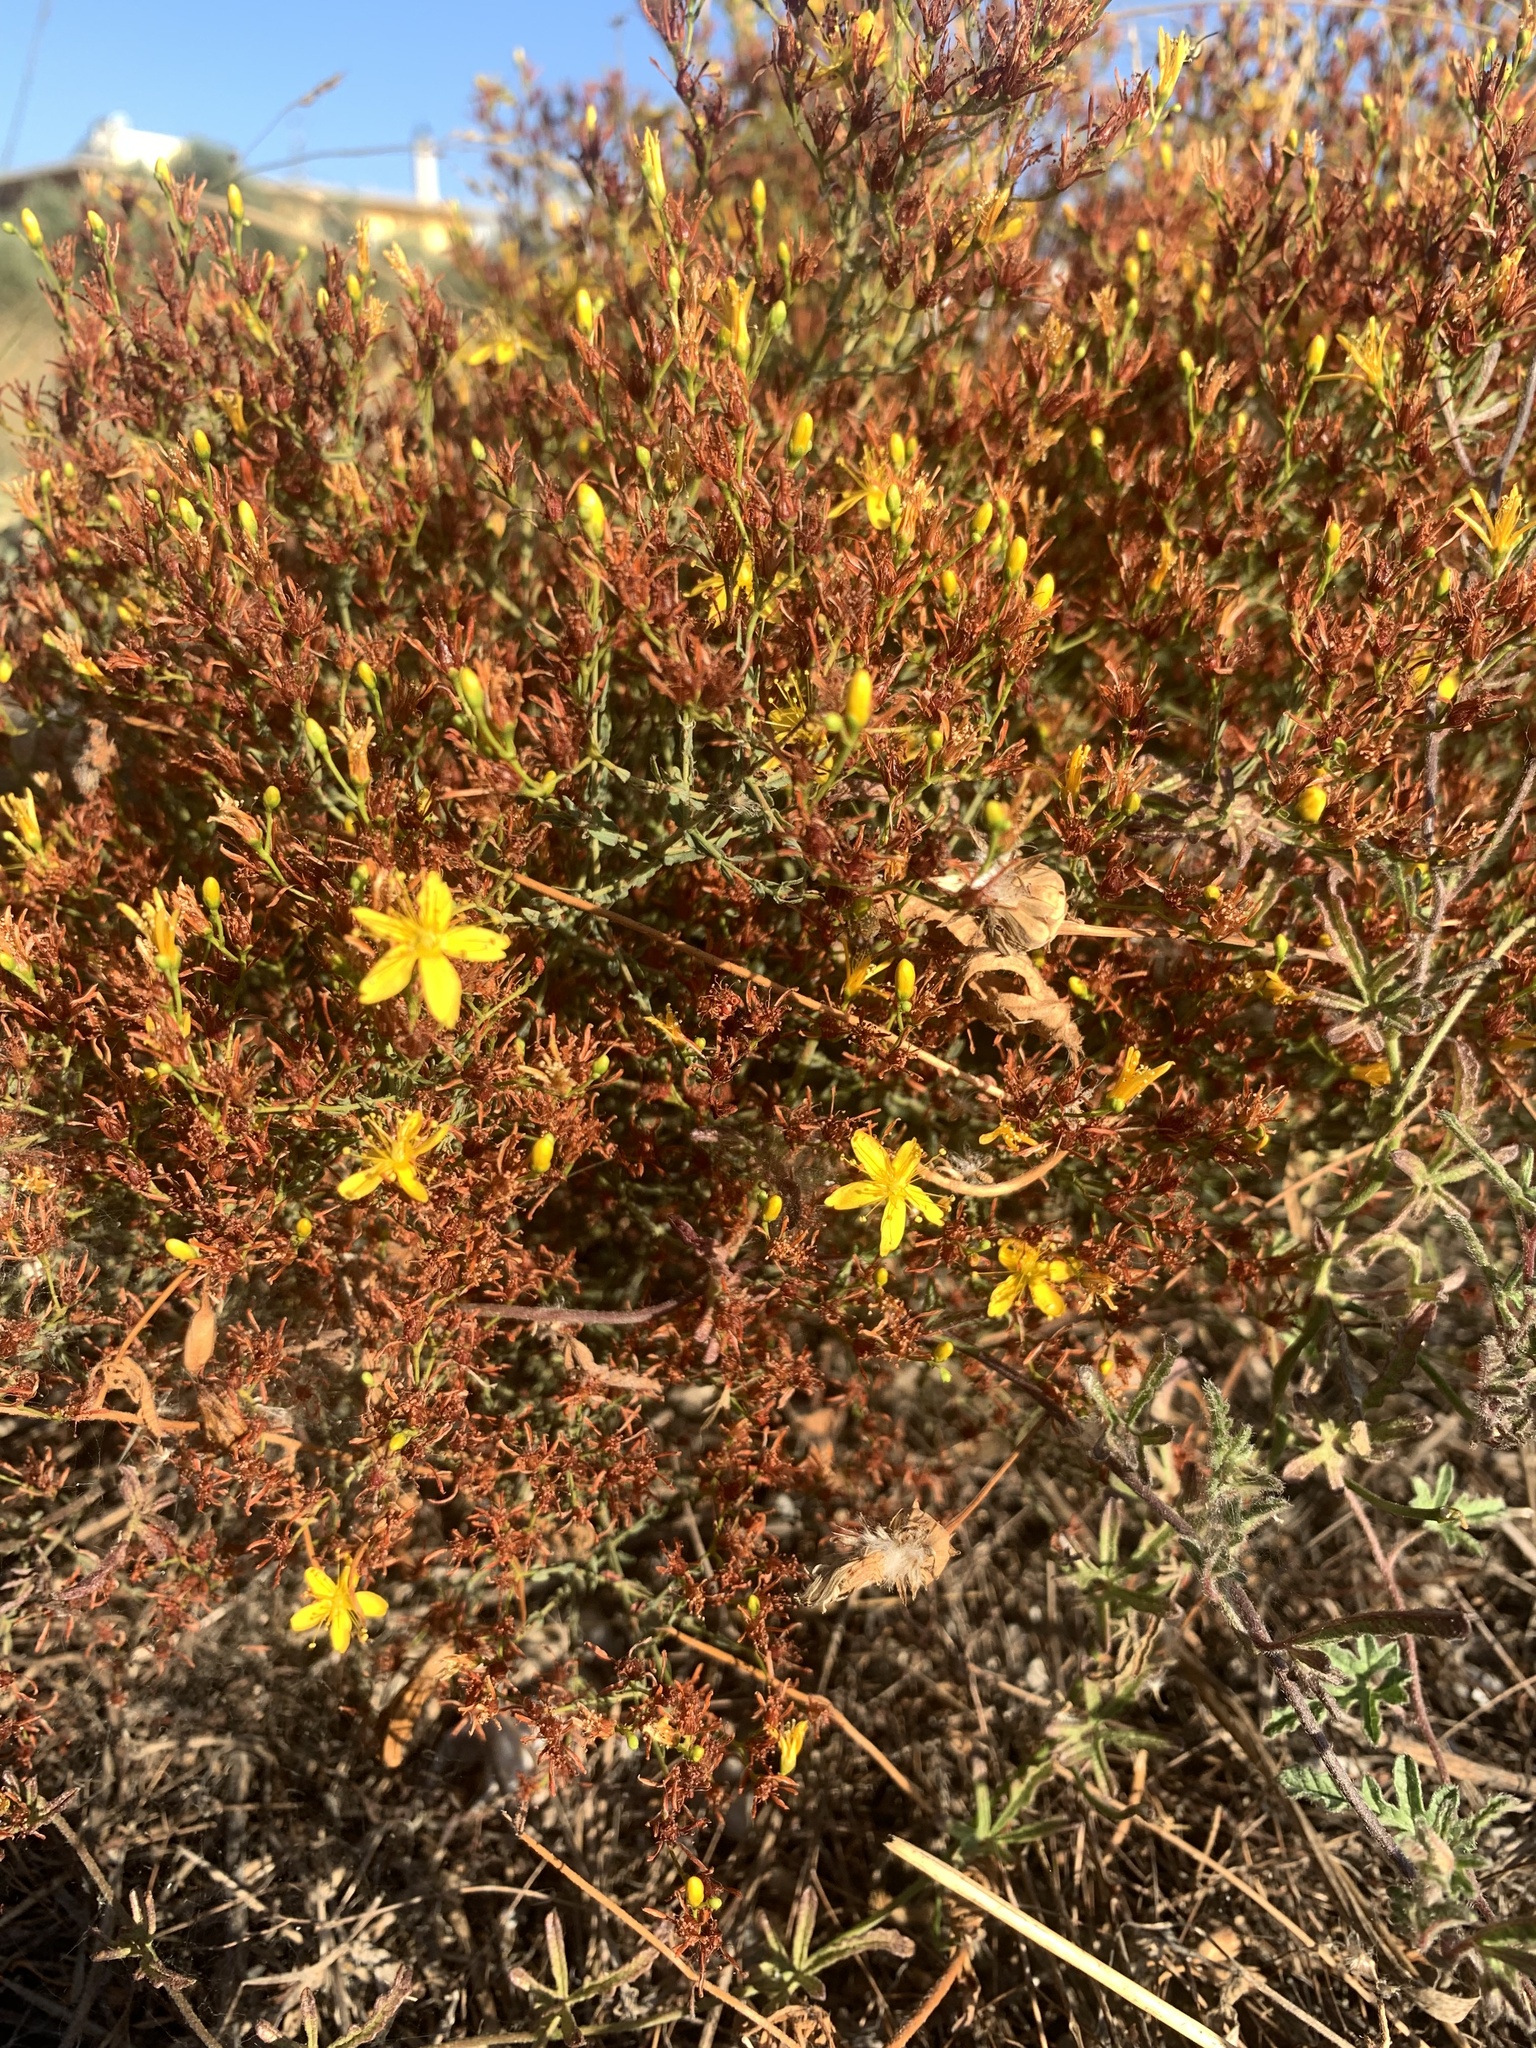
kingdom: Plantae
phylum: Tracheophyta
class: Magnoliopsida
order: Malpighiales
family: Hypericaceae
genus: Hypericum
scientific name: Hypericum triquetrifolium
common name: Tangled hypericum
